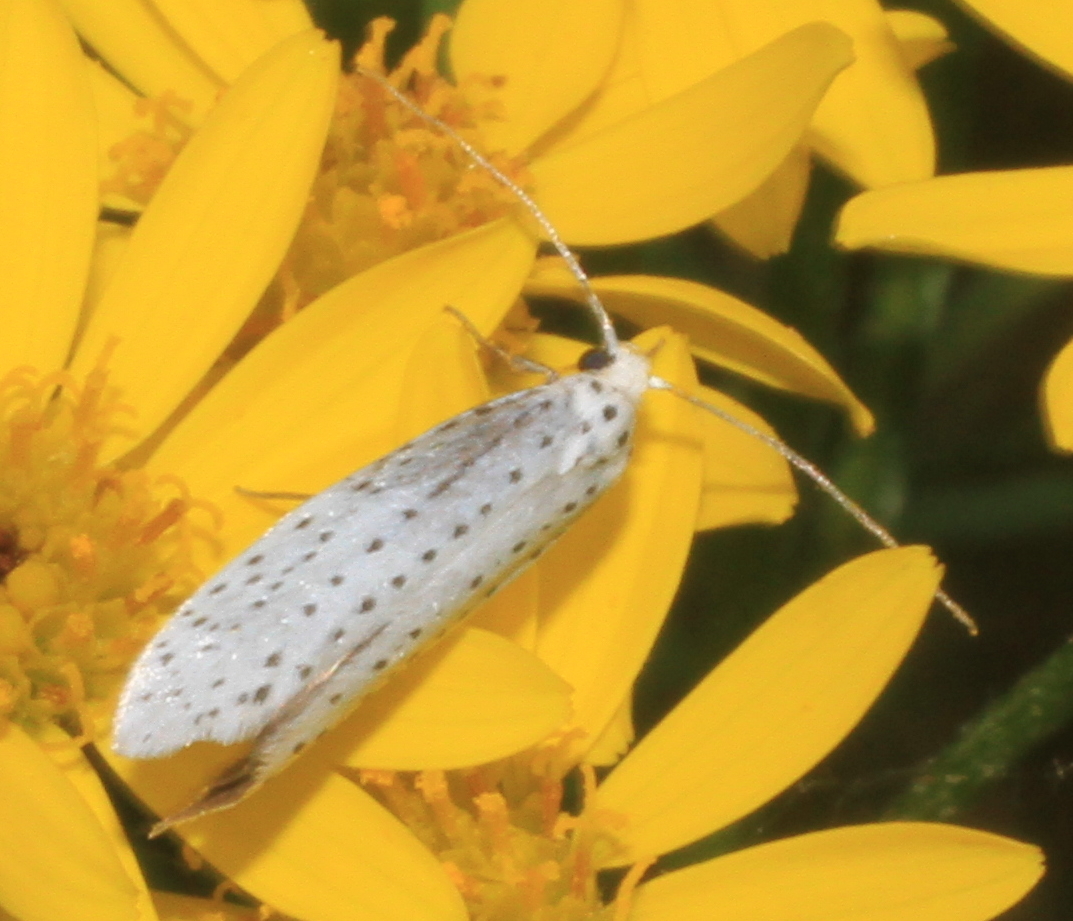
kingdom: Animalia
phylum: Arthropoda
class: Insecta
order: Lepidoptera
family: Yponomeutidae
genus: Yponomeuta
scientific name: Yponomeuta evonymella
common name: Bird-cherry ermine
